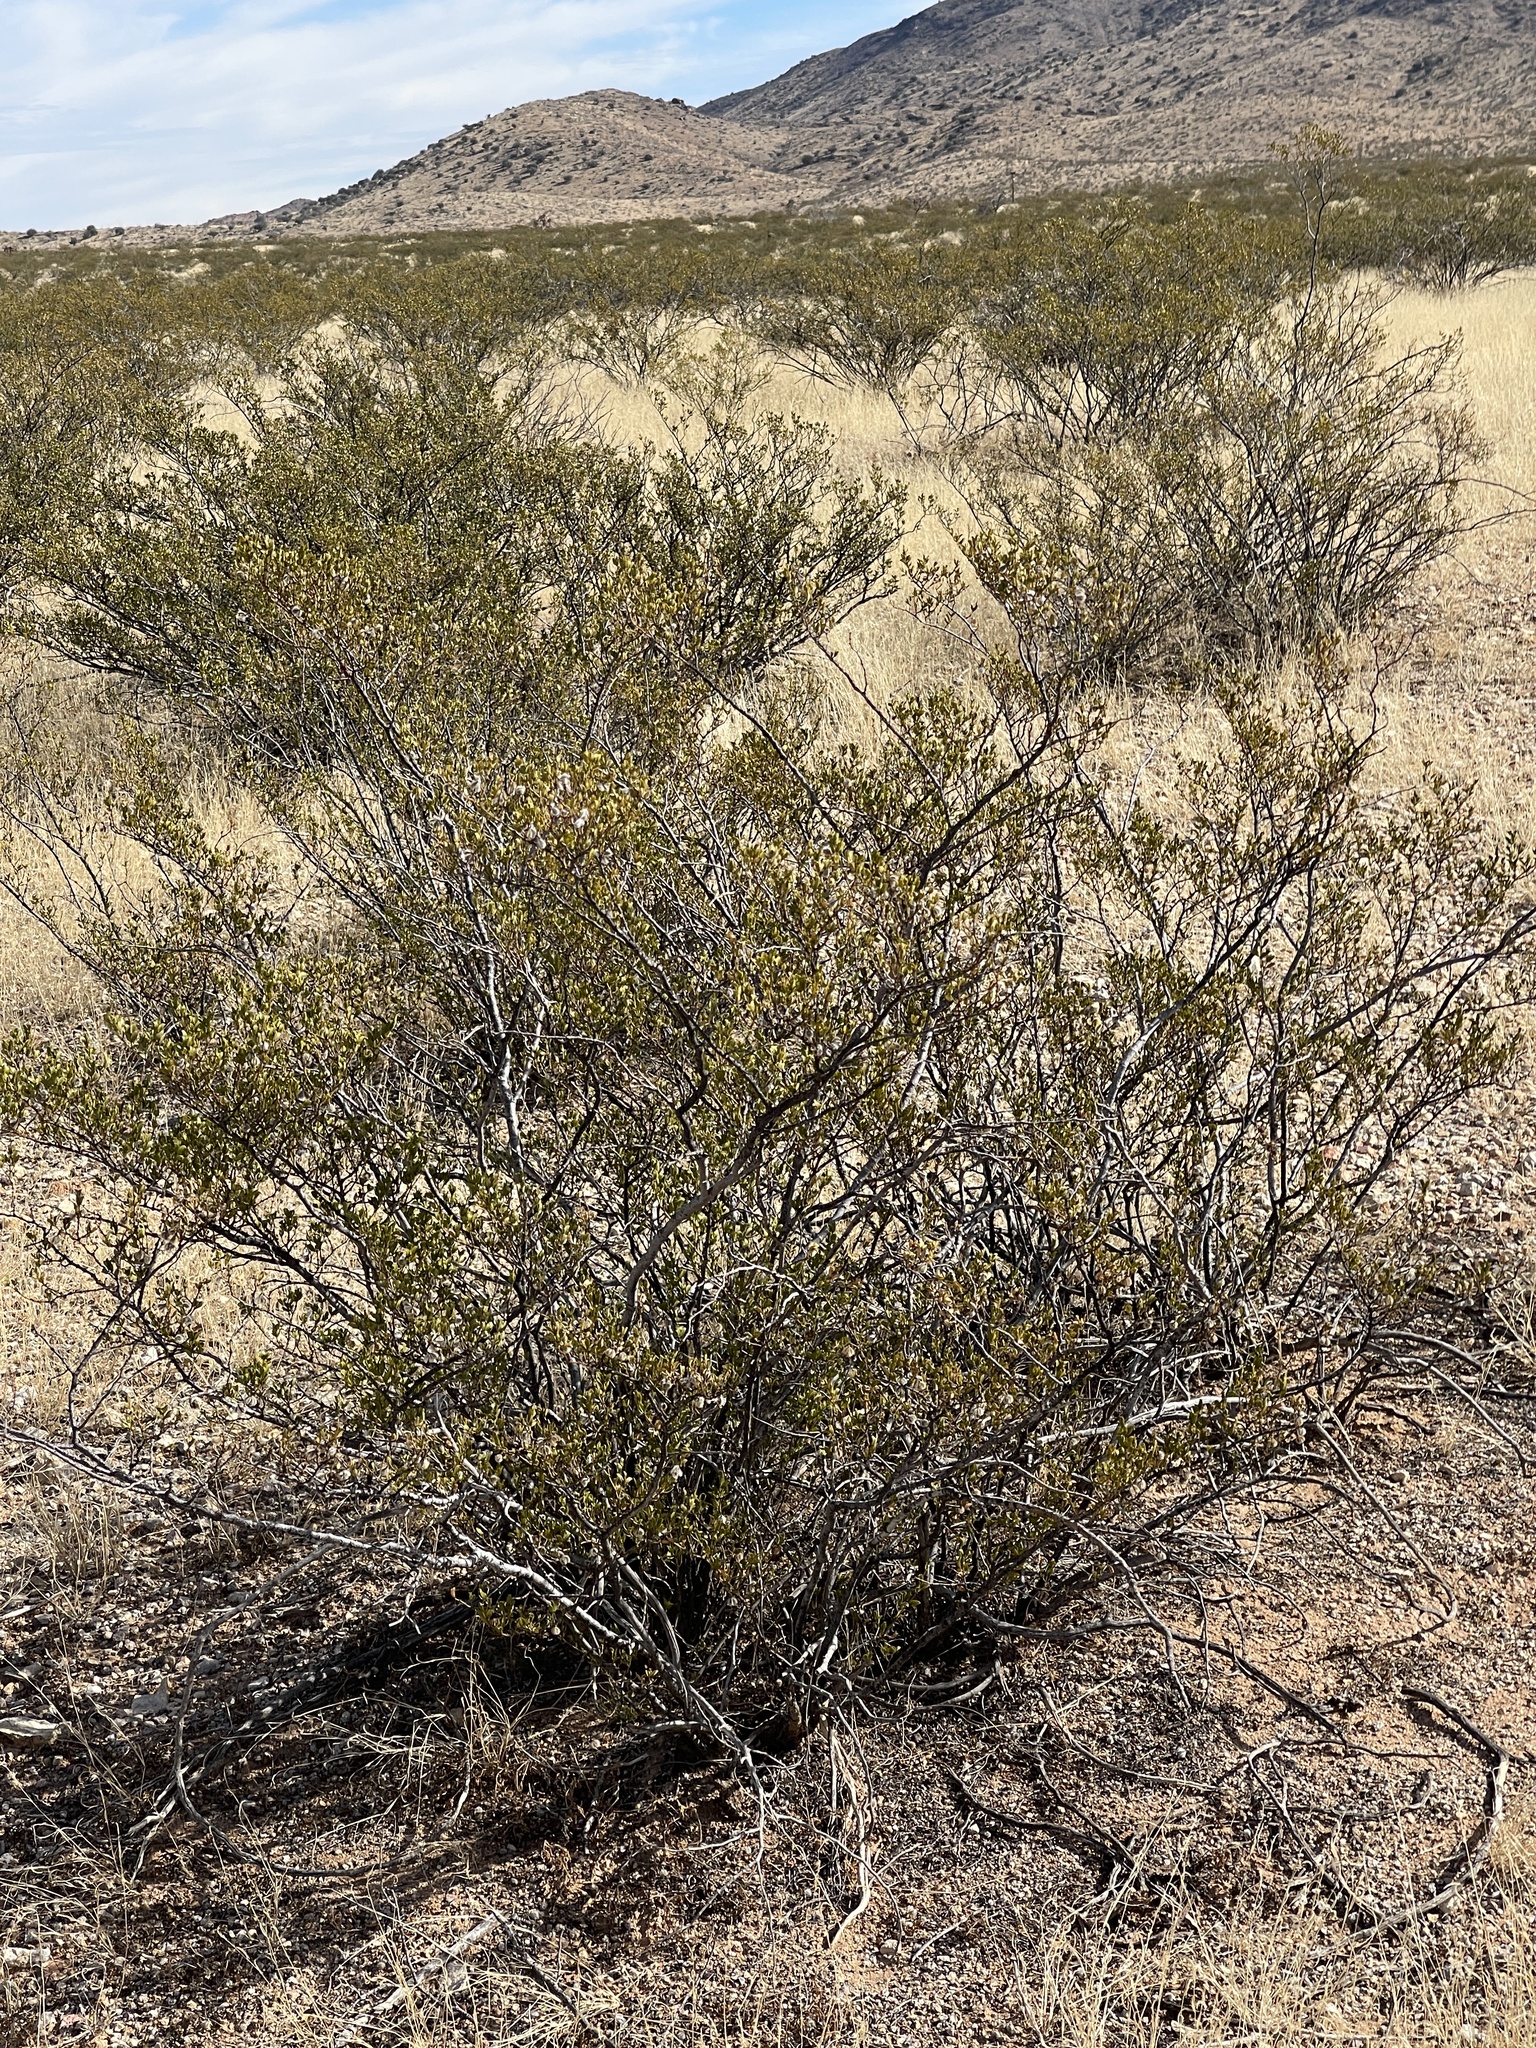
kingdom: Plantae
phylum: Tracheophyta
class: Magnoliopsida
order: Zygophyllales
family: Zygophyllaceae
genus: Larrea
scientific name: Larrea tridentata
